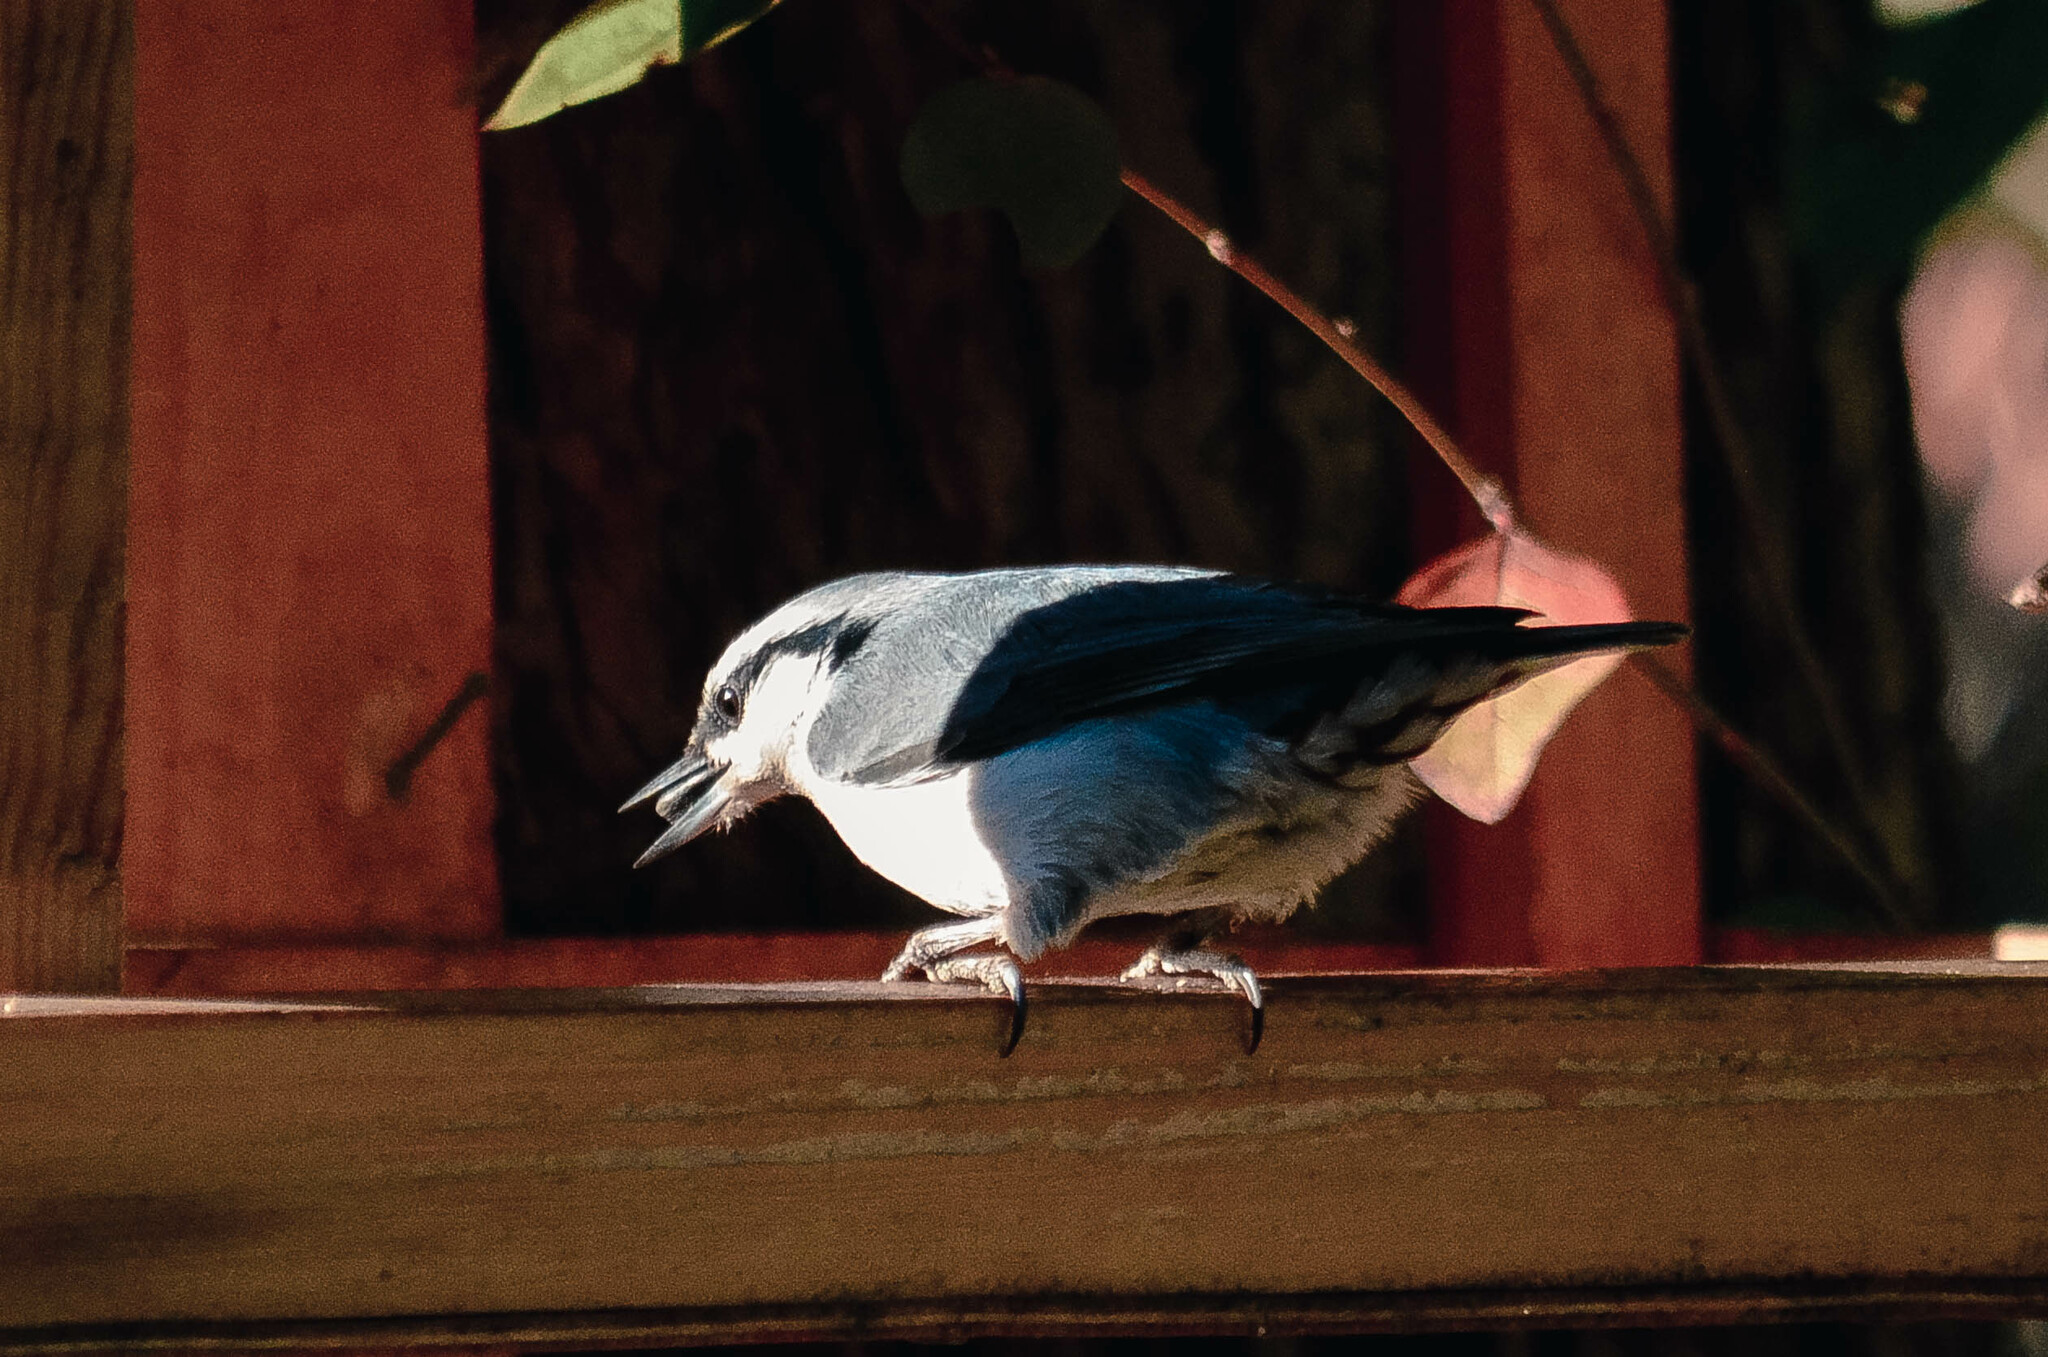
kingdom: Animalia
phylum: Chordata
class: Aves
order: Passeriformes
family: Sittidae
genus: Sitta
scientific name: Sitta europaea
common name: Eurasian nuthatch
